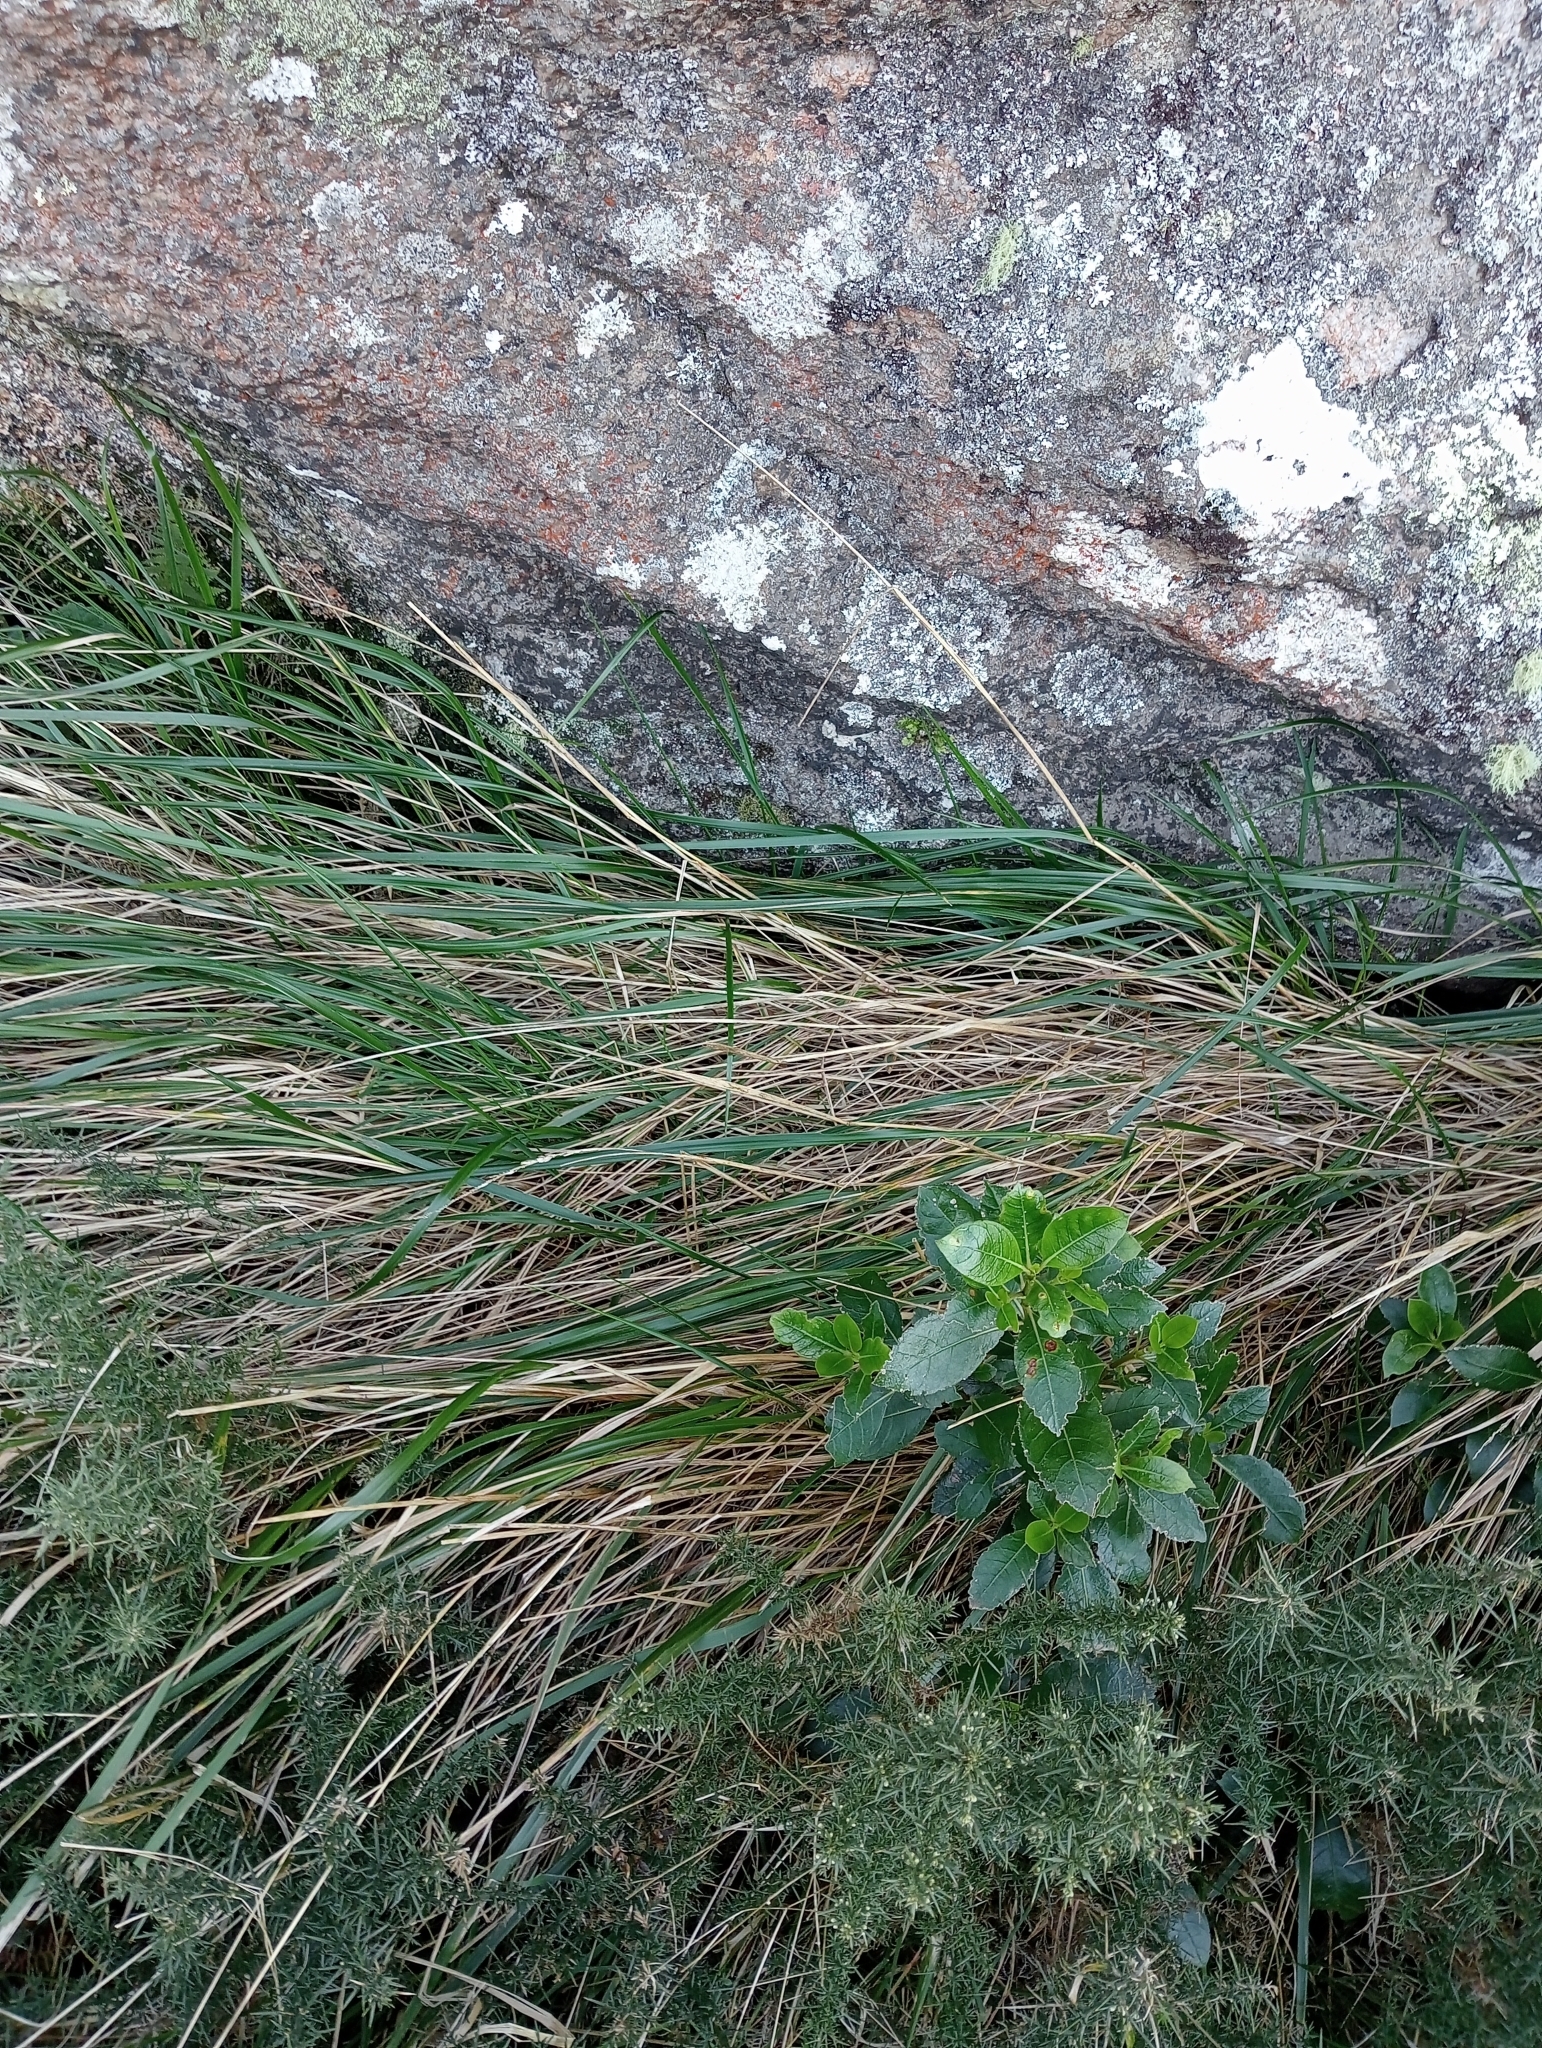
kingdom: Plantae
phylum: Tracheophyta
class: Liliopsida
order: Poales
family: Poaceae
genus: Anthoxanthum
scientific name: Anthoxanthum redolens
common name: Sweet holy grass
